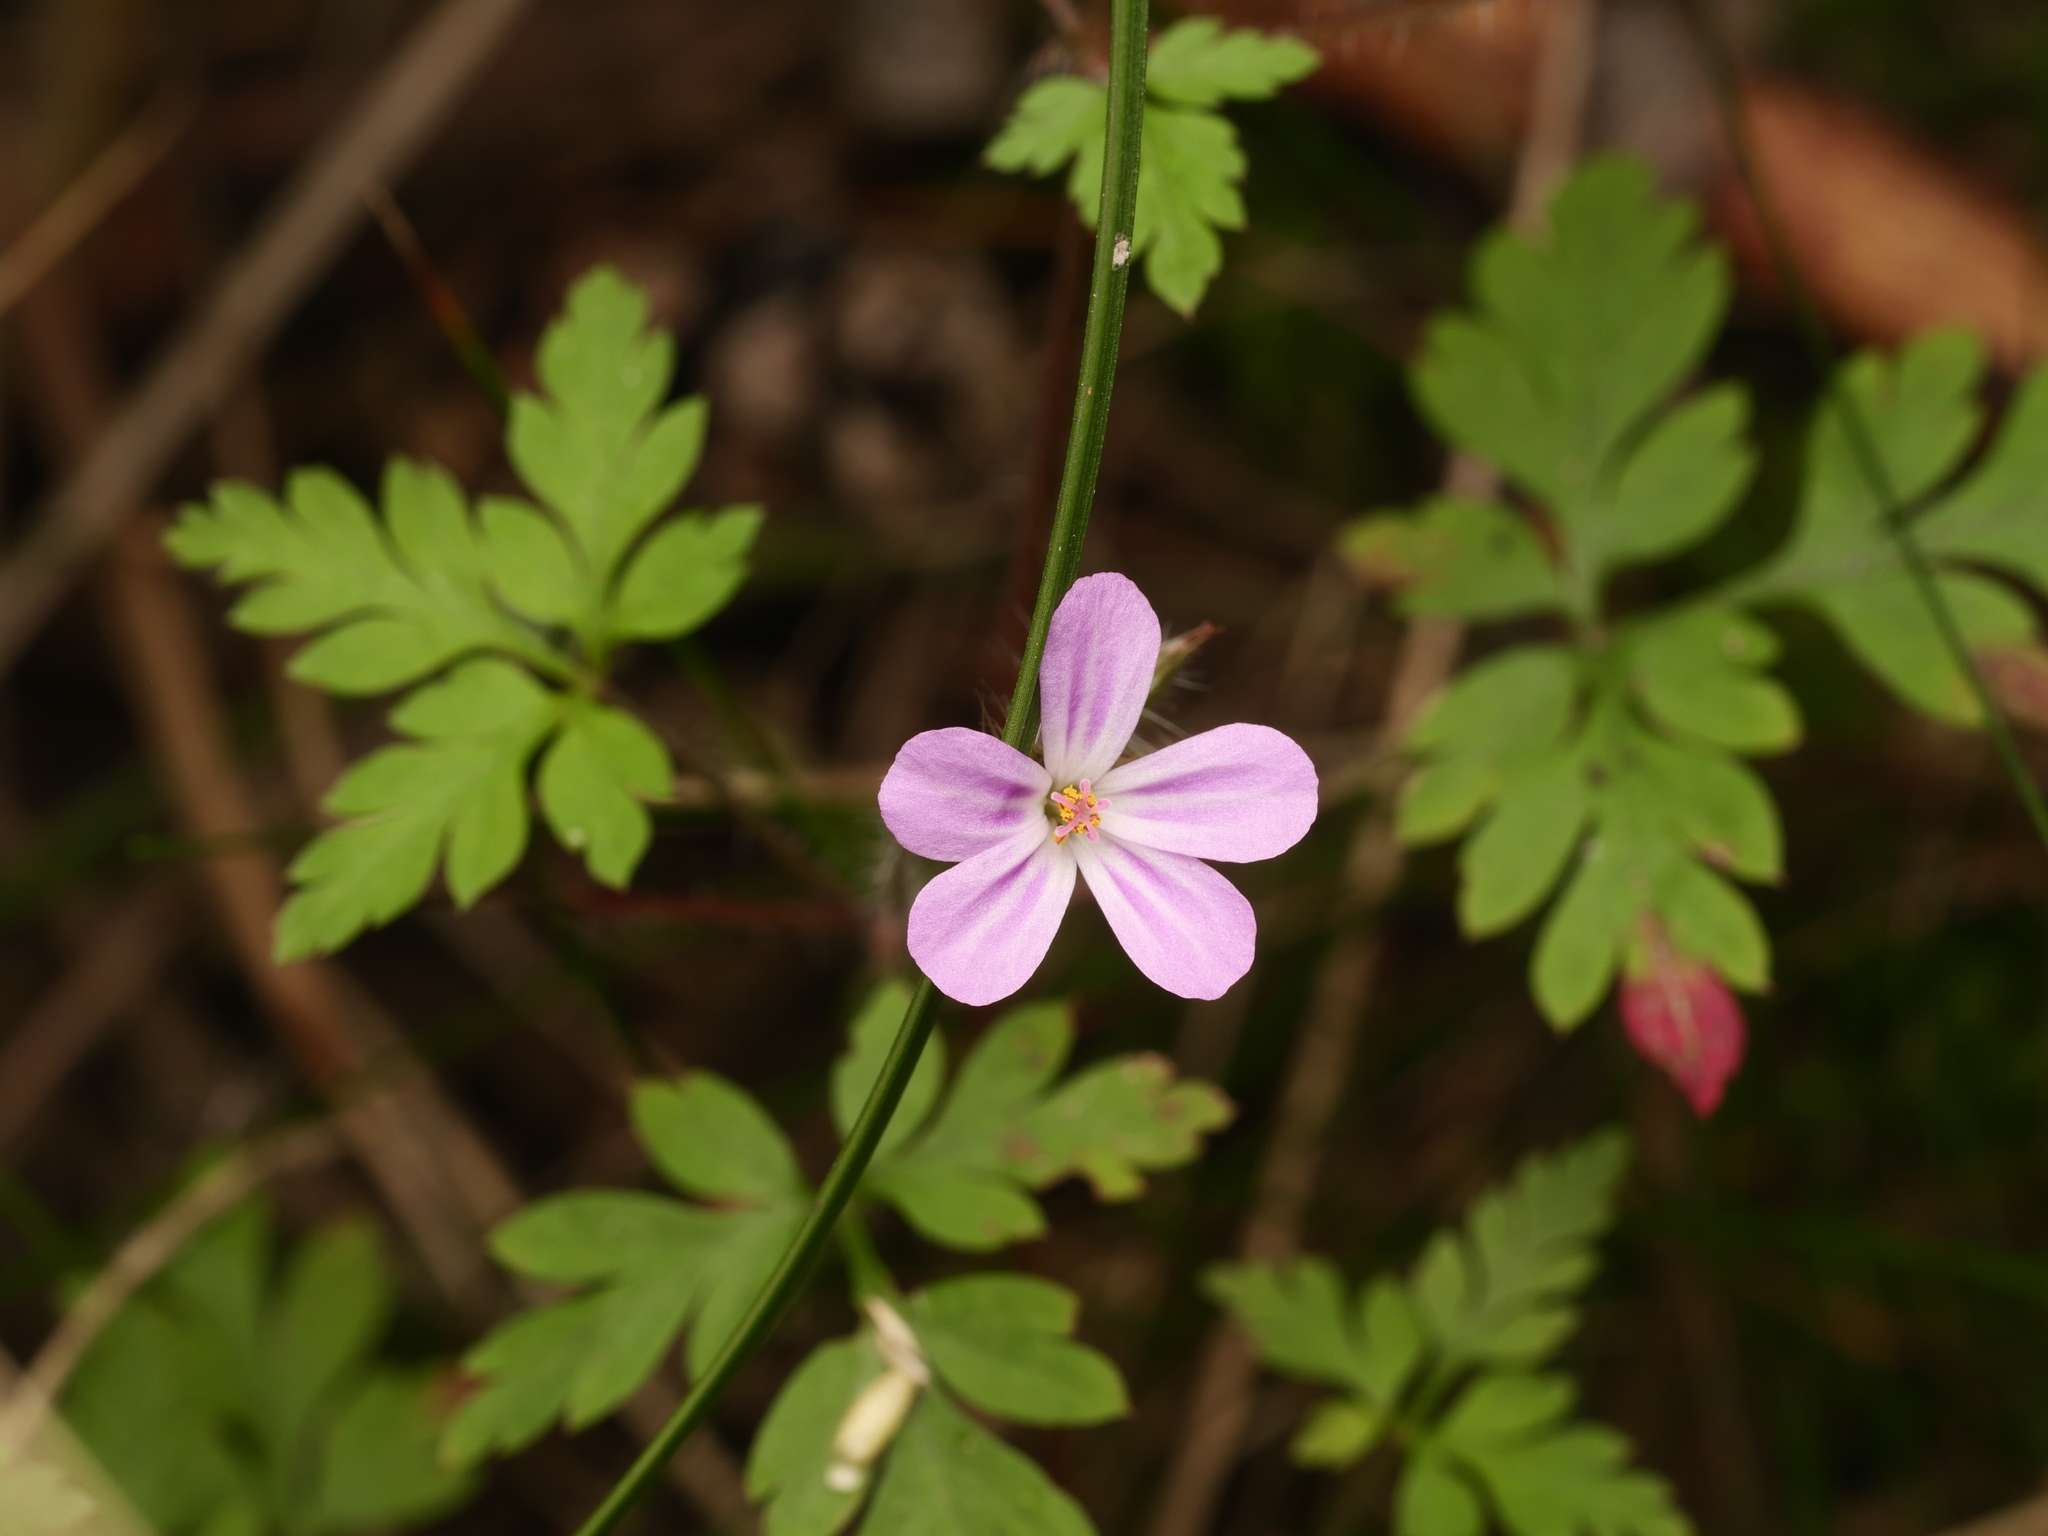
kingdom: Plantae
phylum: Tracheophyta
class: Magnoliopsida
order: Geraniales
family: Geraniaceae
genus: Geranium
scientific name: Geranium robertianum
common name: Herb-robert
